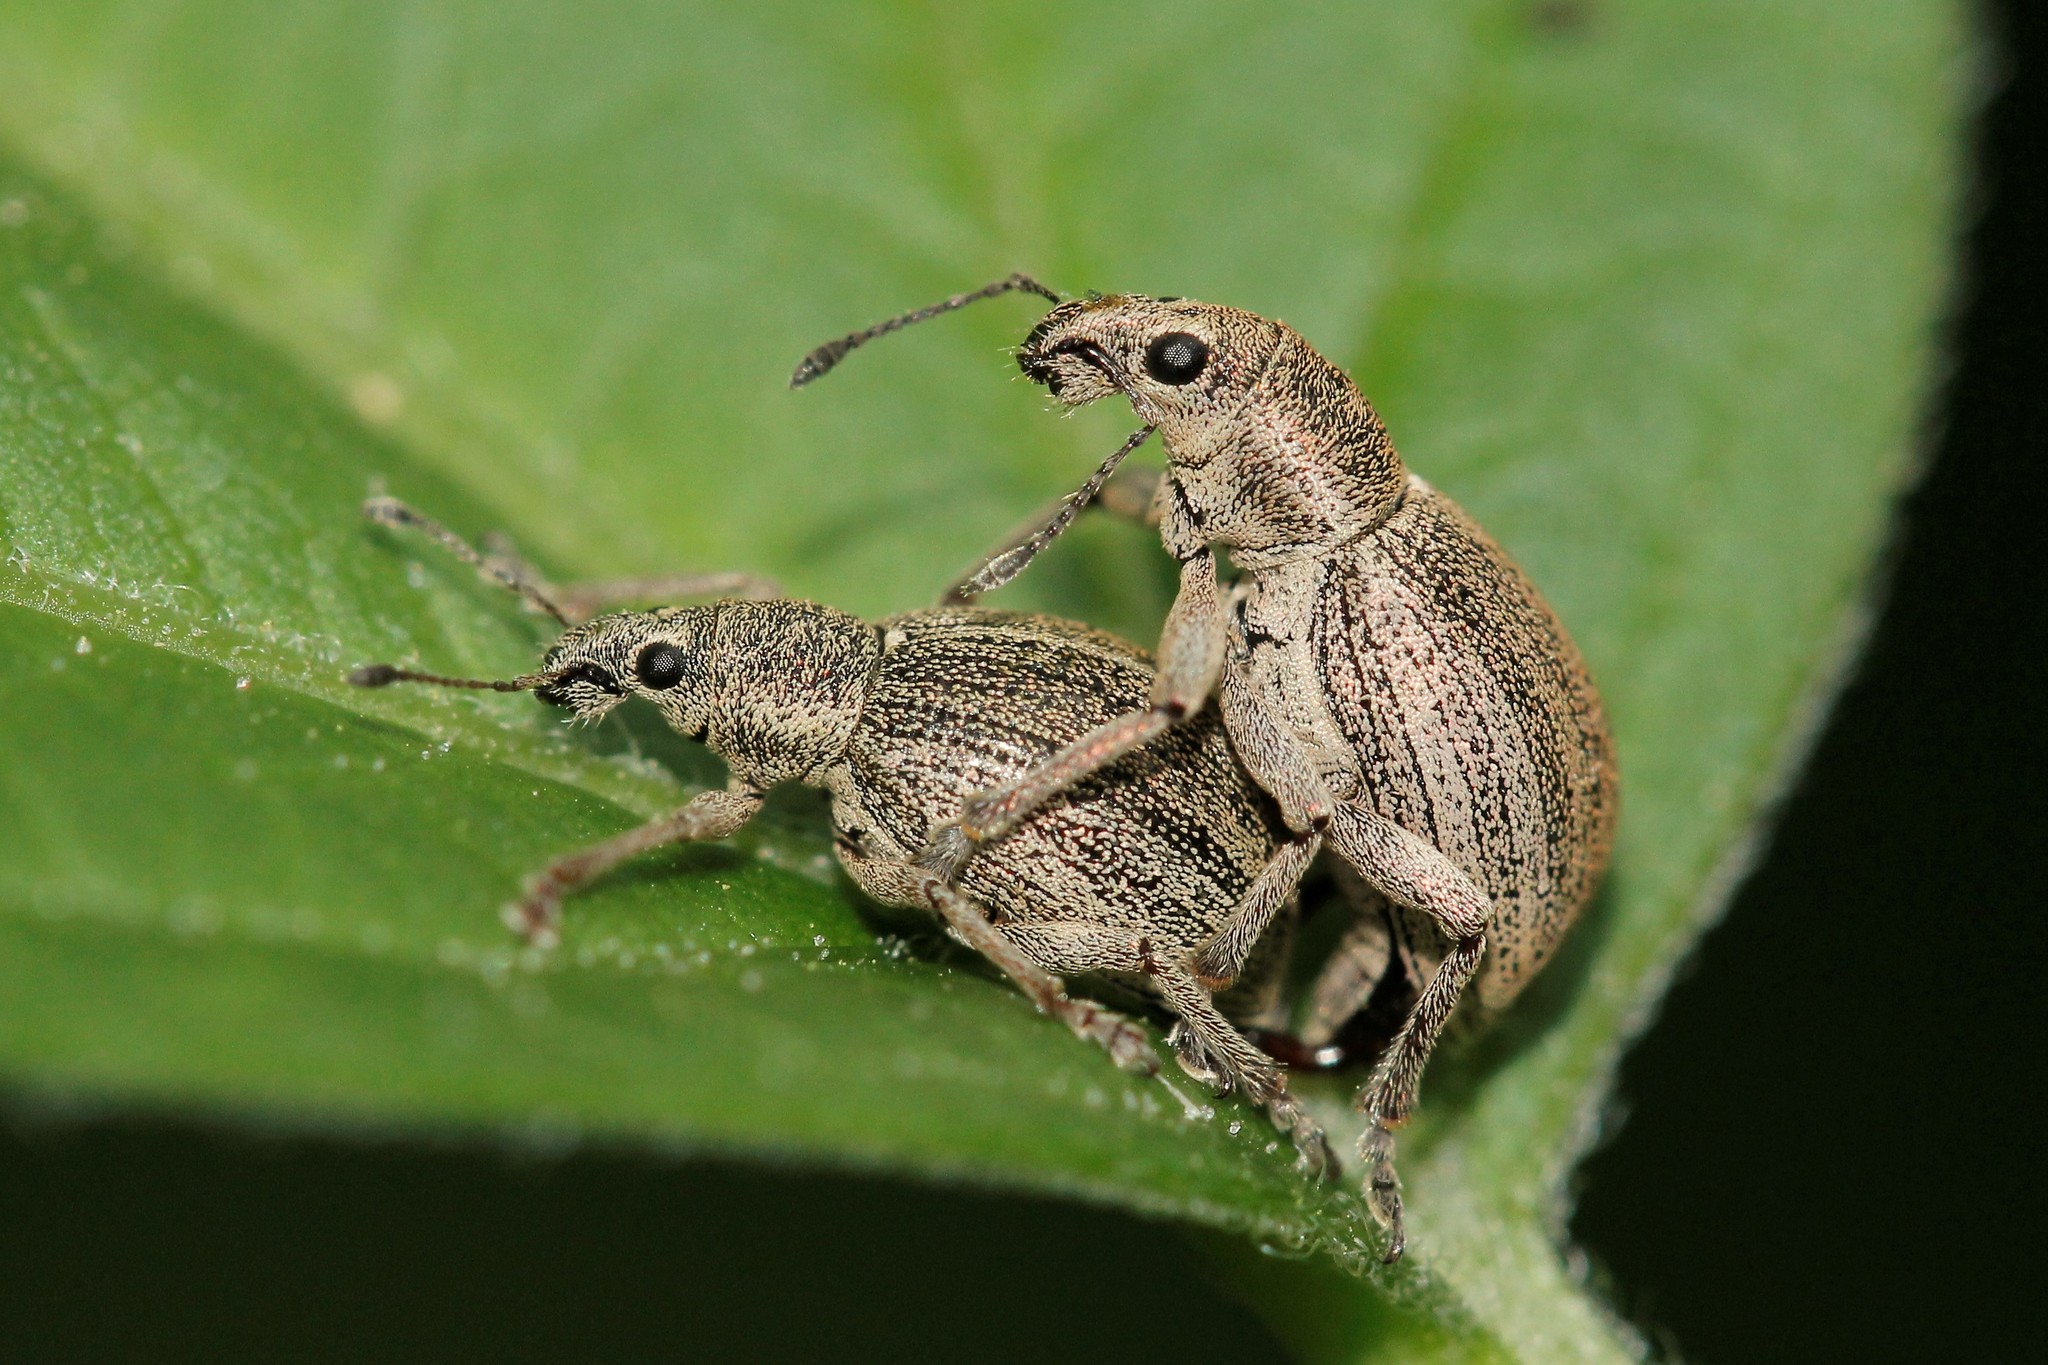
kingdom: Animalia
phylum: Arthropoda
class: Insecta
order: Coleoptera
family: Curculionidae
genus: Sciaphobus
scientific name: Sciaphobus squalidus
